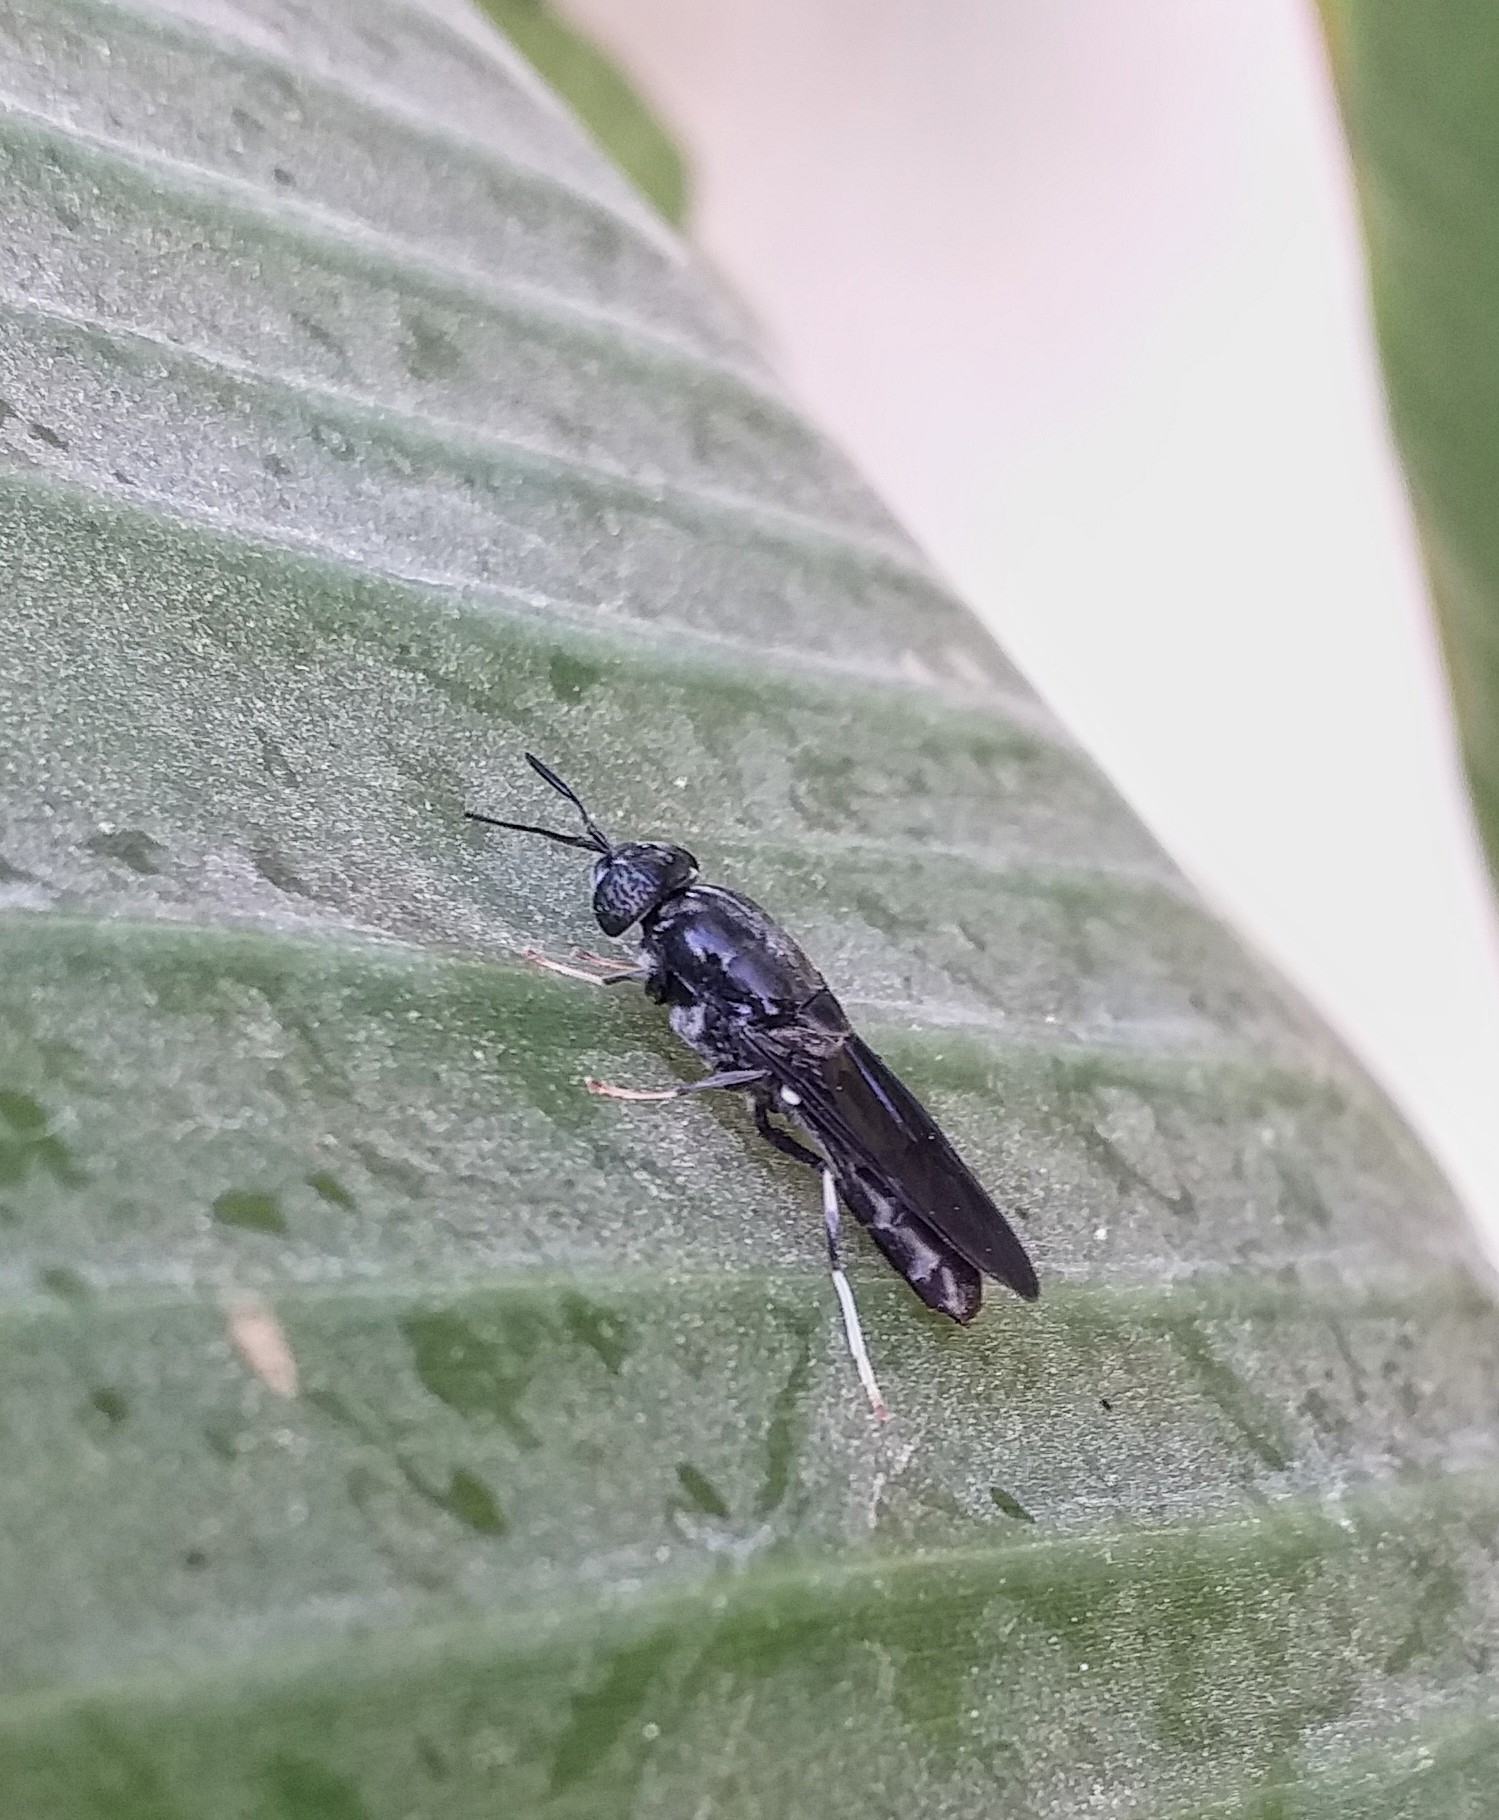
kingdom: Animalia
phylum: Arthropoda
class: Insecta
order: Diptera
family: Stratiomyidae
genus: Hermetia
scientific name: Hermetia illucens
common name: Black soldier fly
